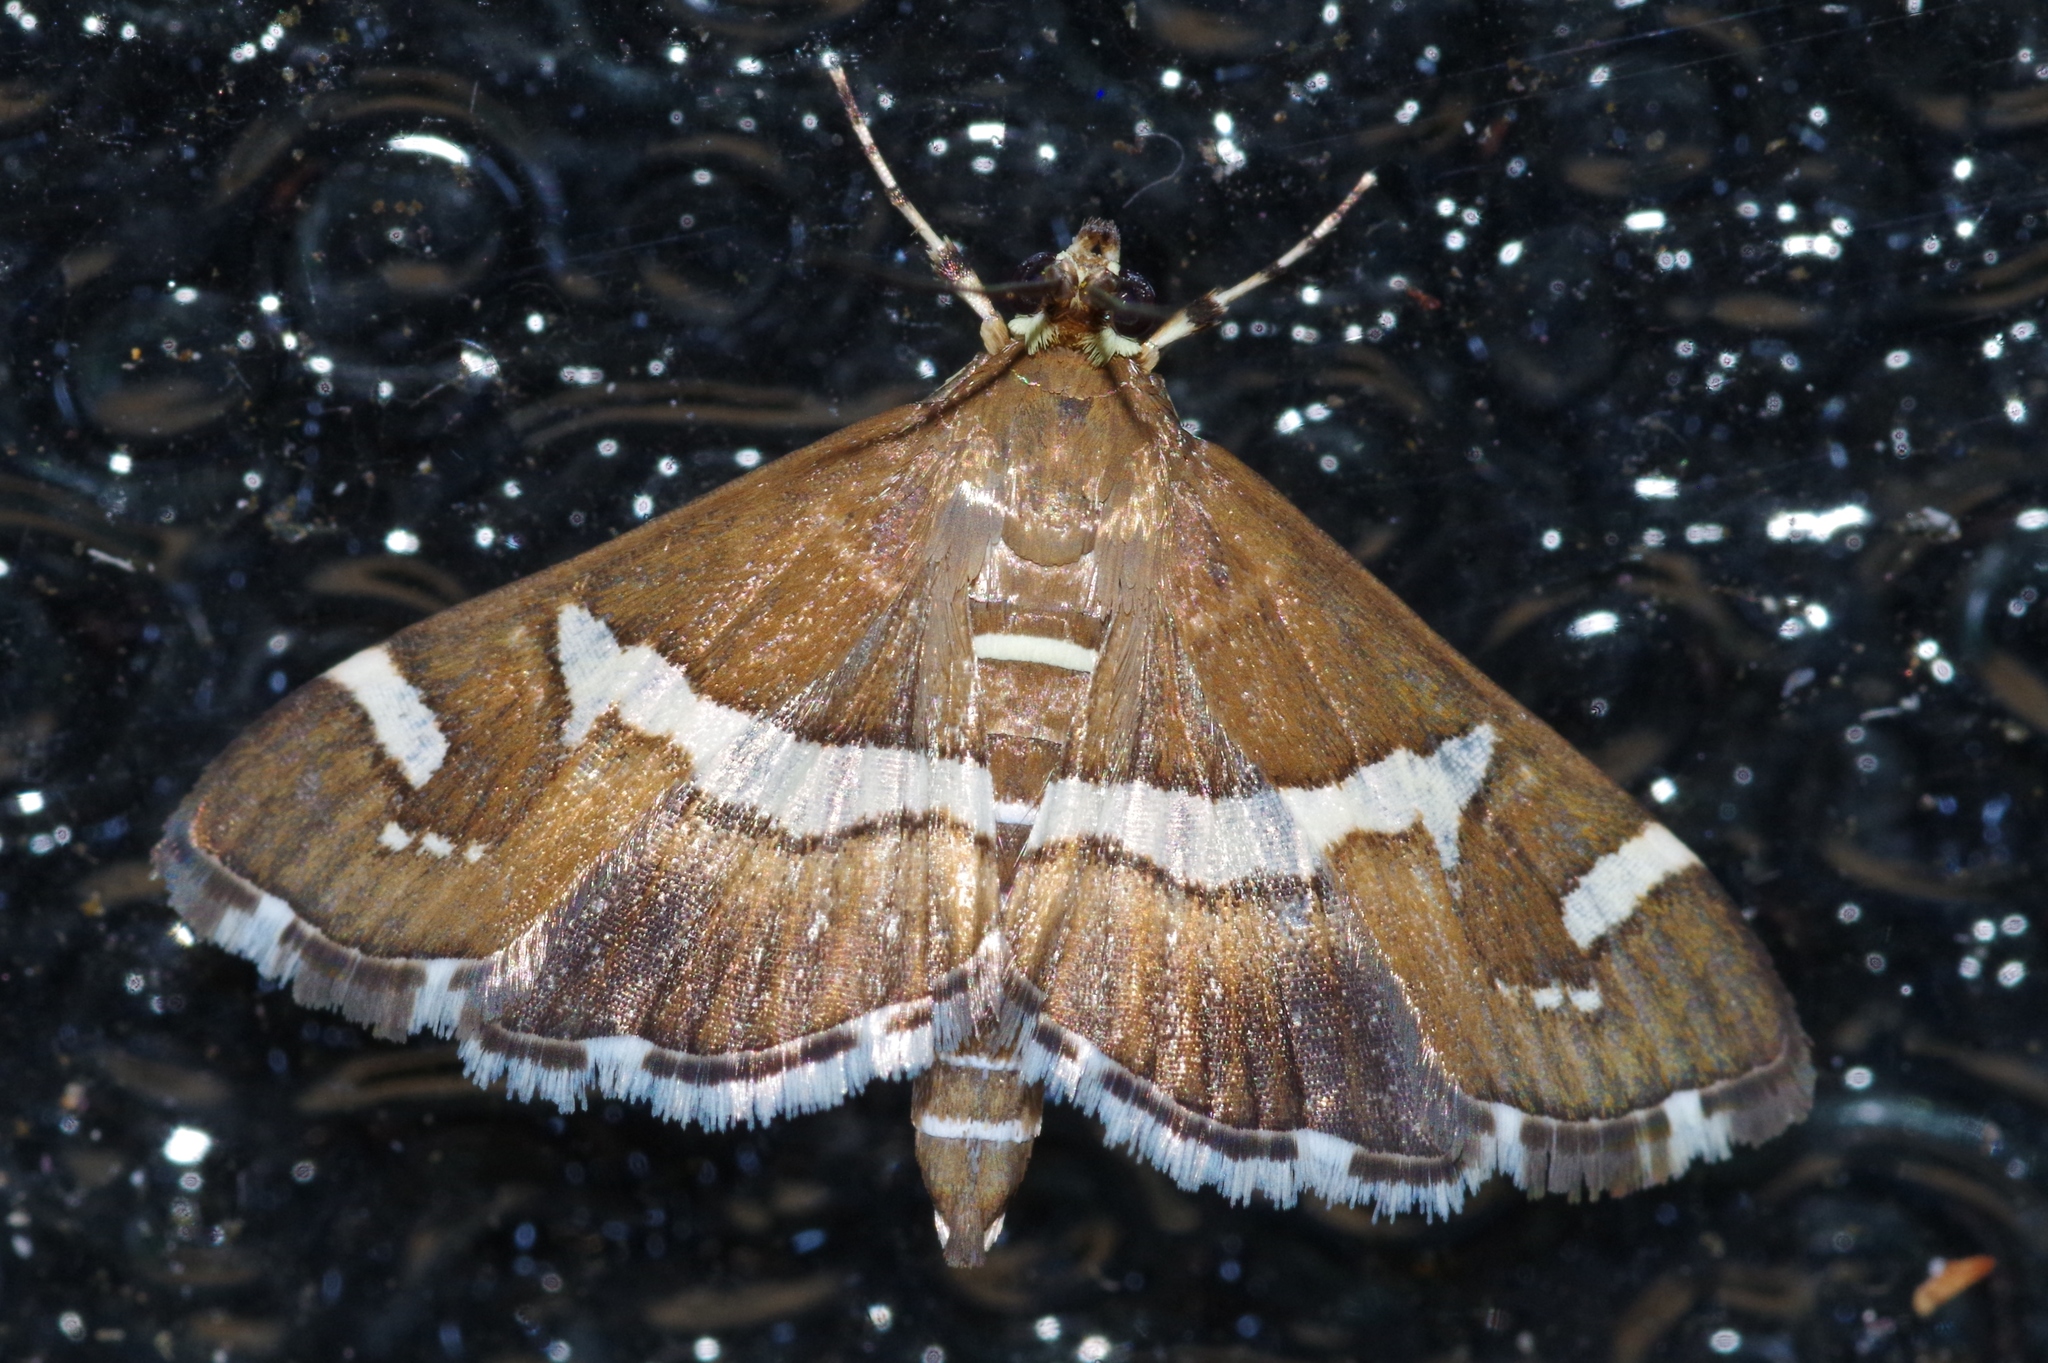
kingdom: Animalia
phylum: Arthropoda
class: Insecta
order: Lepidoptera
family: Crambidae
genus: Spoladea
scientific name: Spoladea recurvalis
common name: Beet webworm moth
